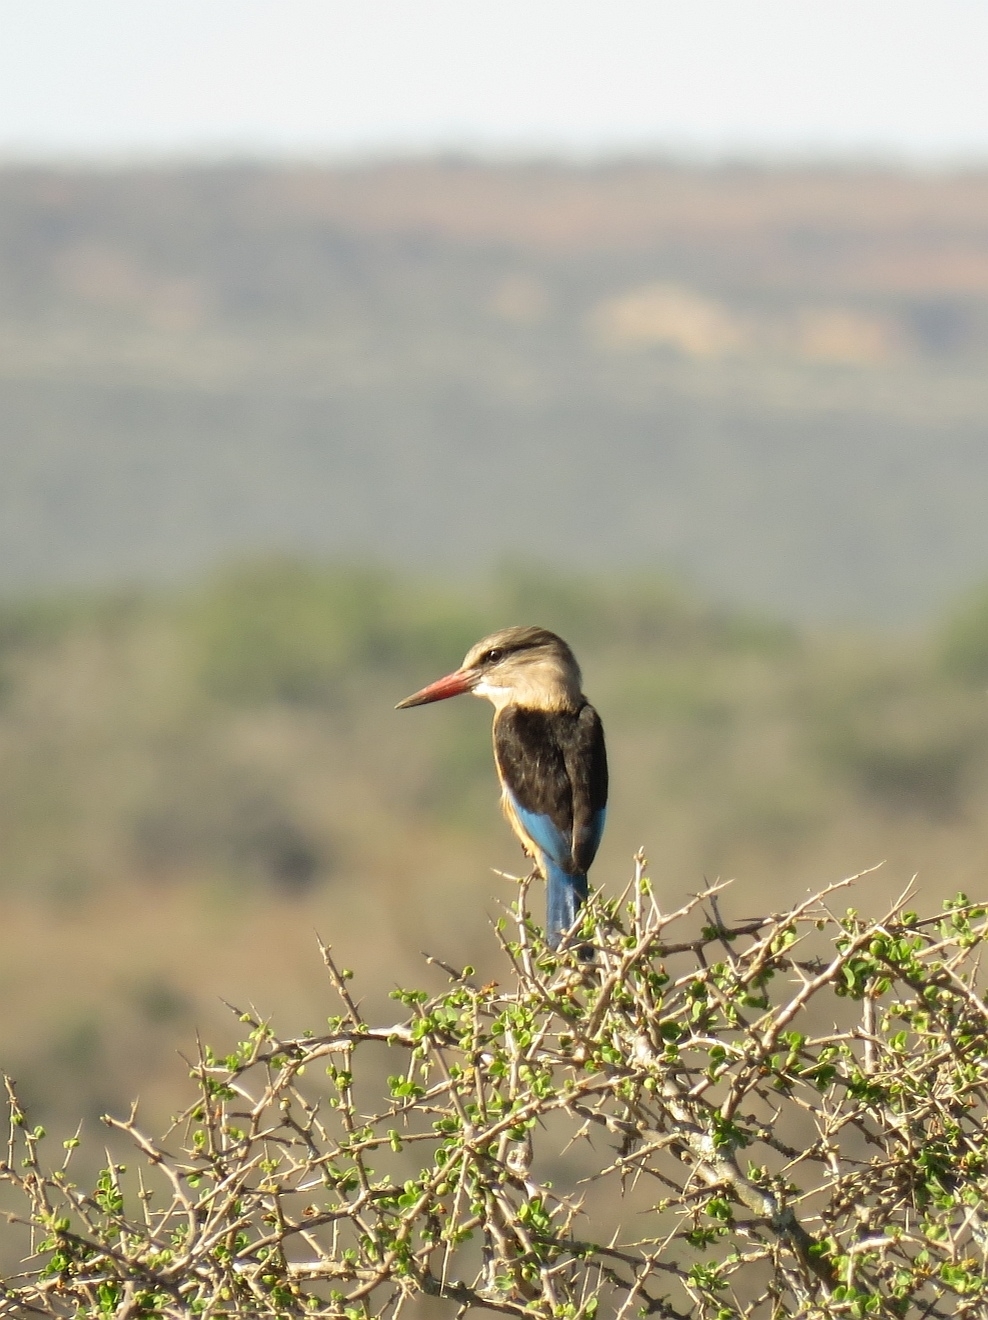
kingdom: Animalia
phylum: Chordata
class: Aves
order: Coraciiformes
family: Alcedinidae
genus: Halcyon
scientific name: Halcyon albiventris
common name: Brown-hooded kingfisher
